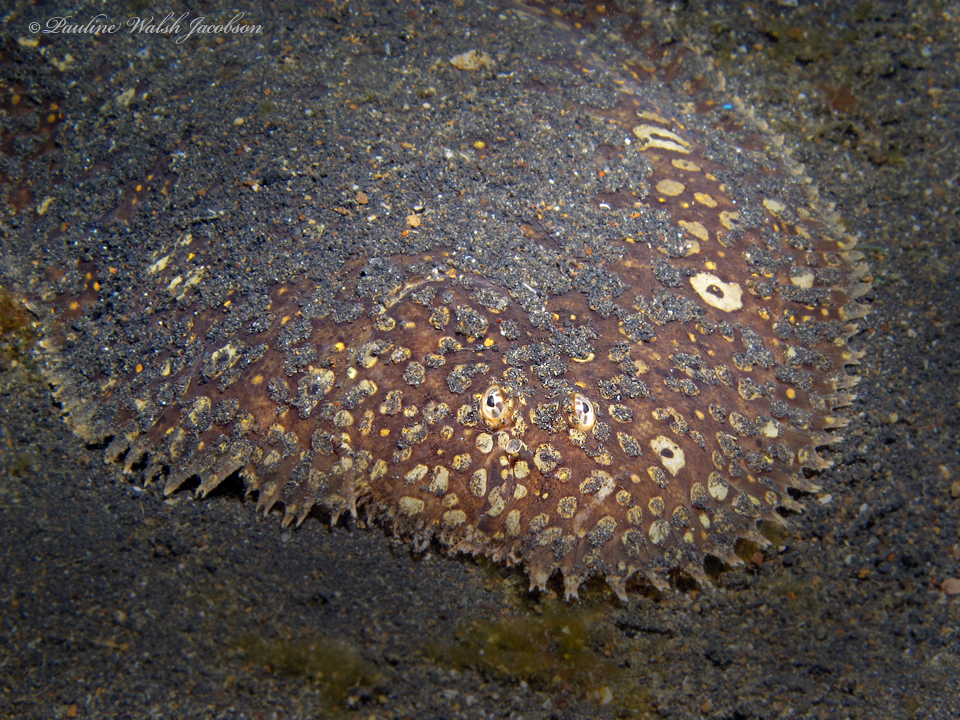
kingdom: Animalia
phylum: Chordata
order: Pleuronectiformes
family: Soleidae
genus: Pardachirus
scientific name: Pardachirus pavoninus
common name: Ocellated sole
